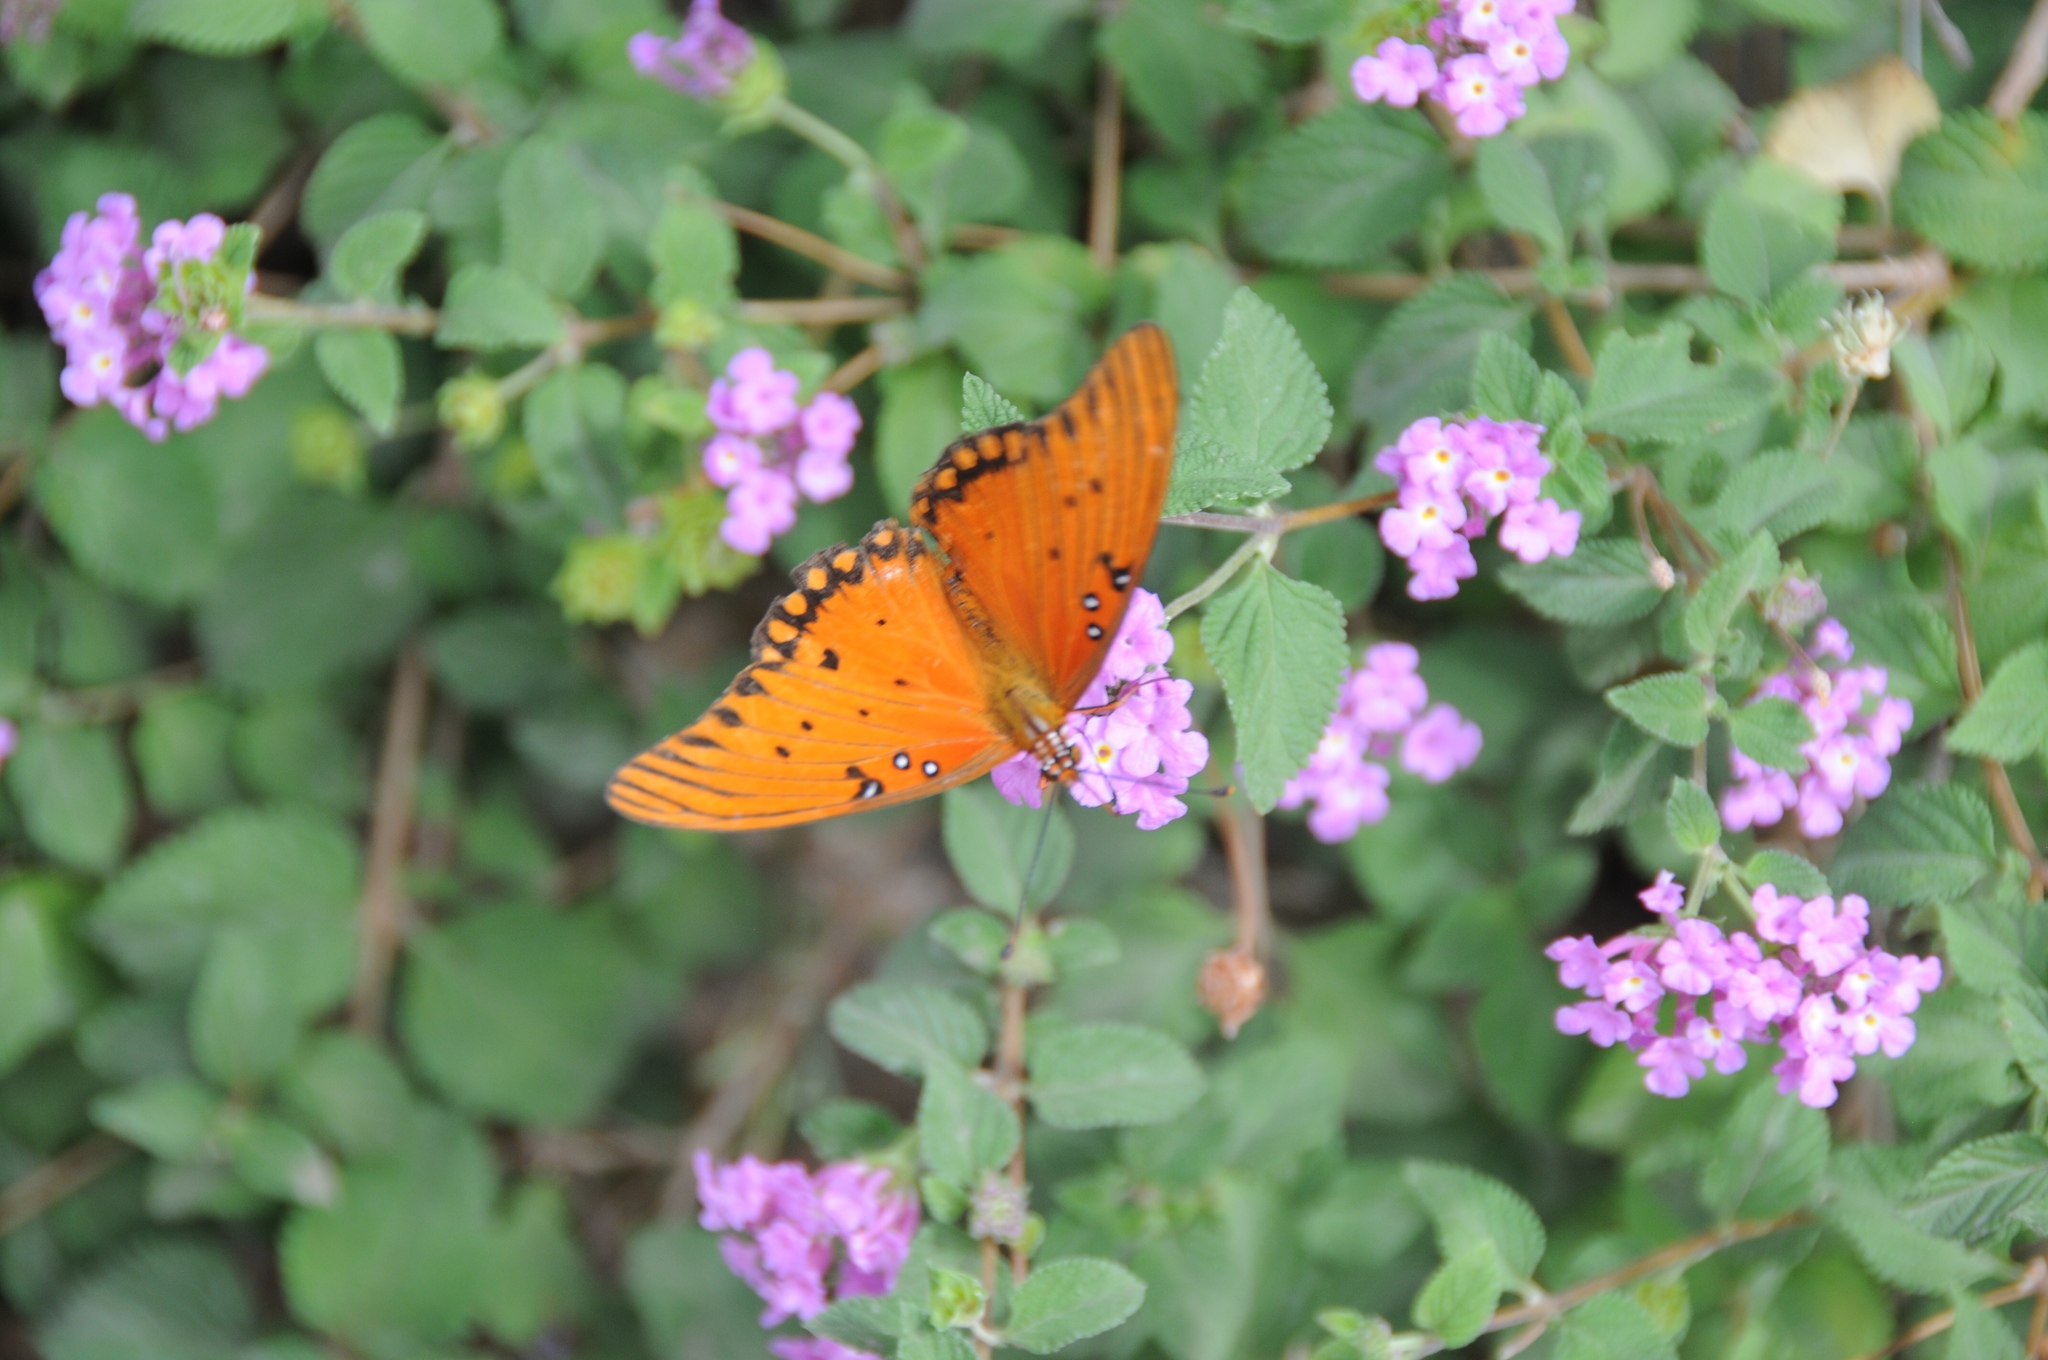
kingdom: Animalia
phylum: Arthropoda
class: Insecta
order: Lepidoptera
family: Nymphalidae
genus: Dione
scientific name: Dione vanillae
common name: Gulf fritillary
